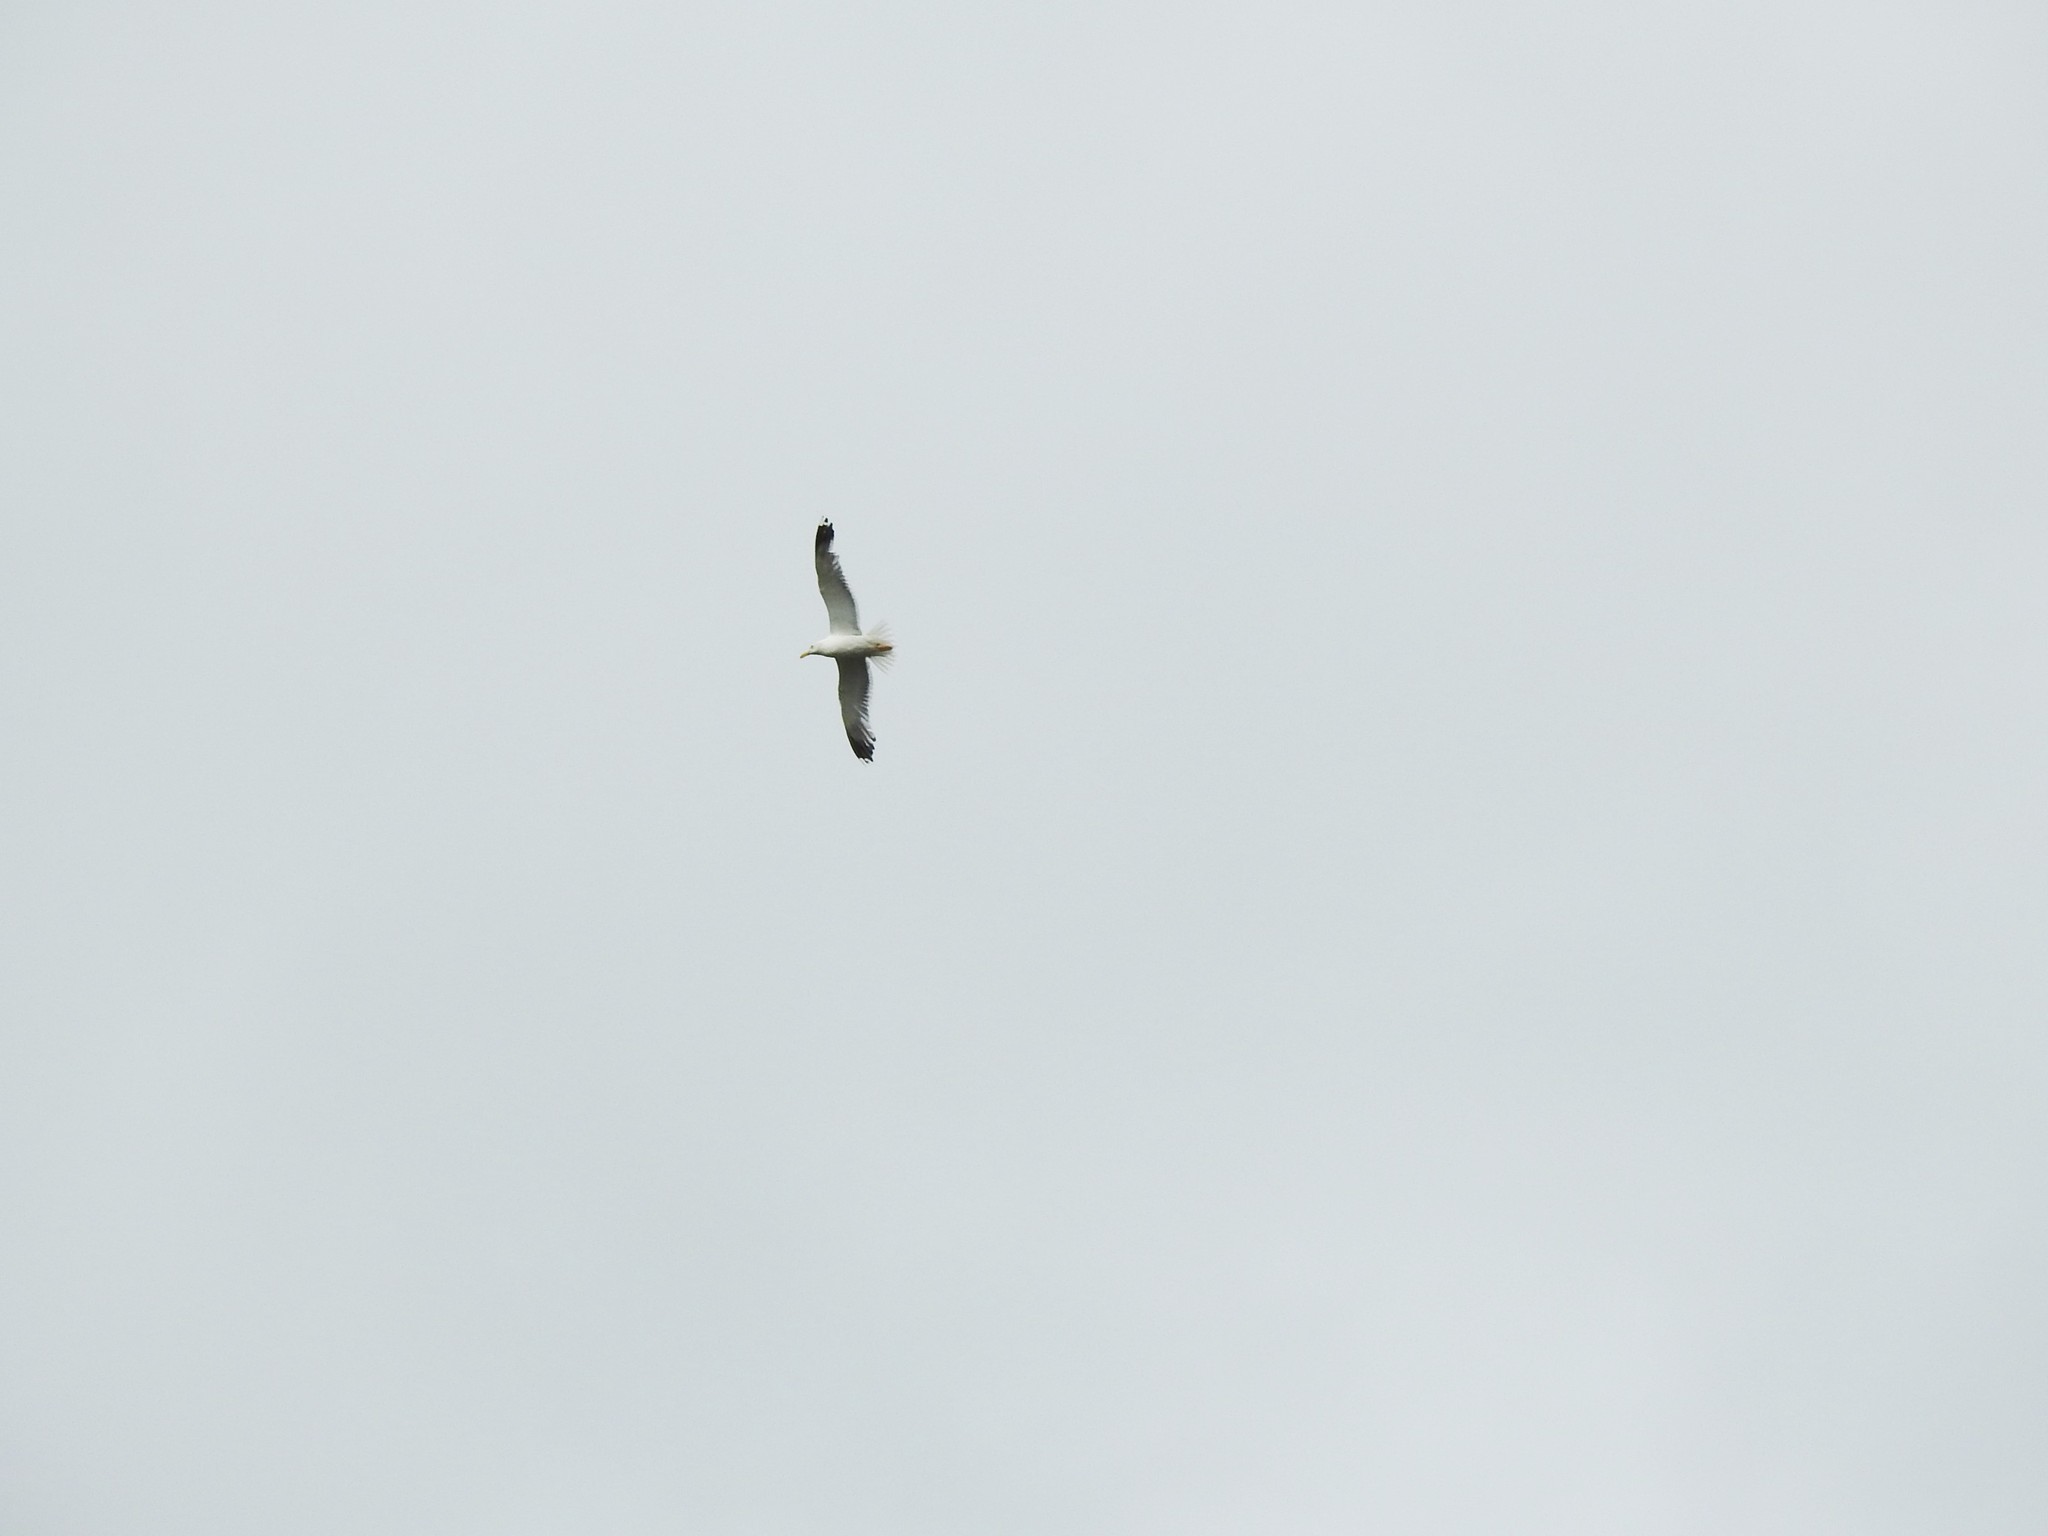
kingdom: Animalia
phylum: Chordata
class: Aves
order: Charadriiformes
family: Laridae
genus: Larus
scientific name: Larus fuscus
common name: Lesser black-backed gull
